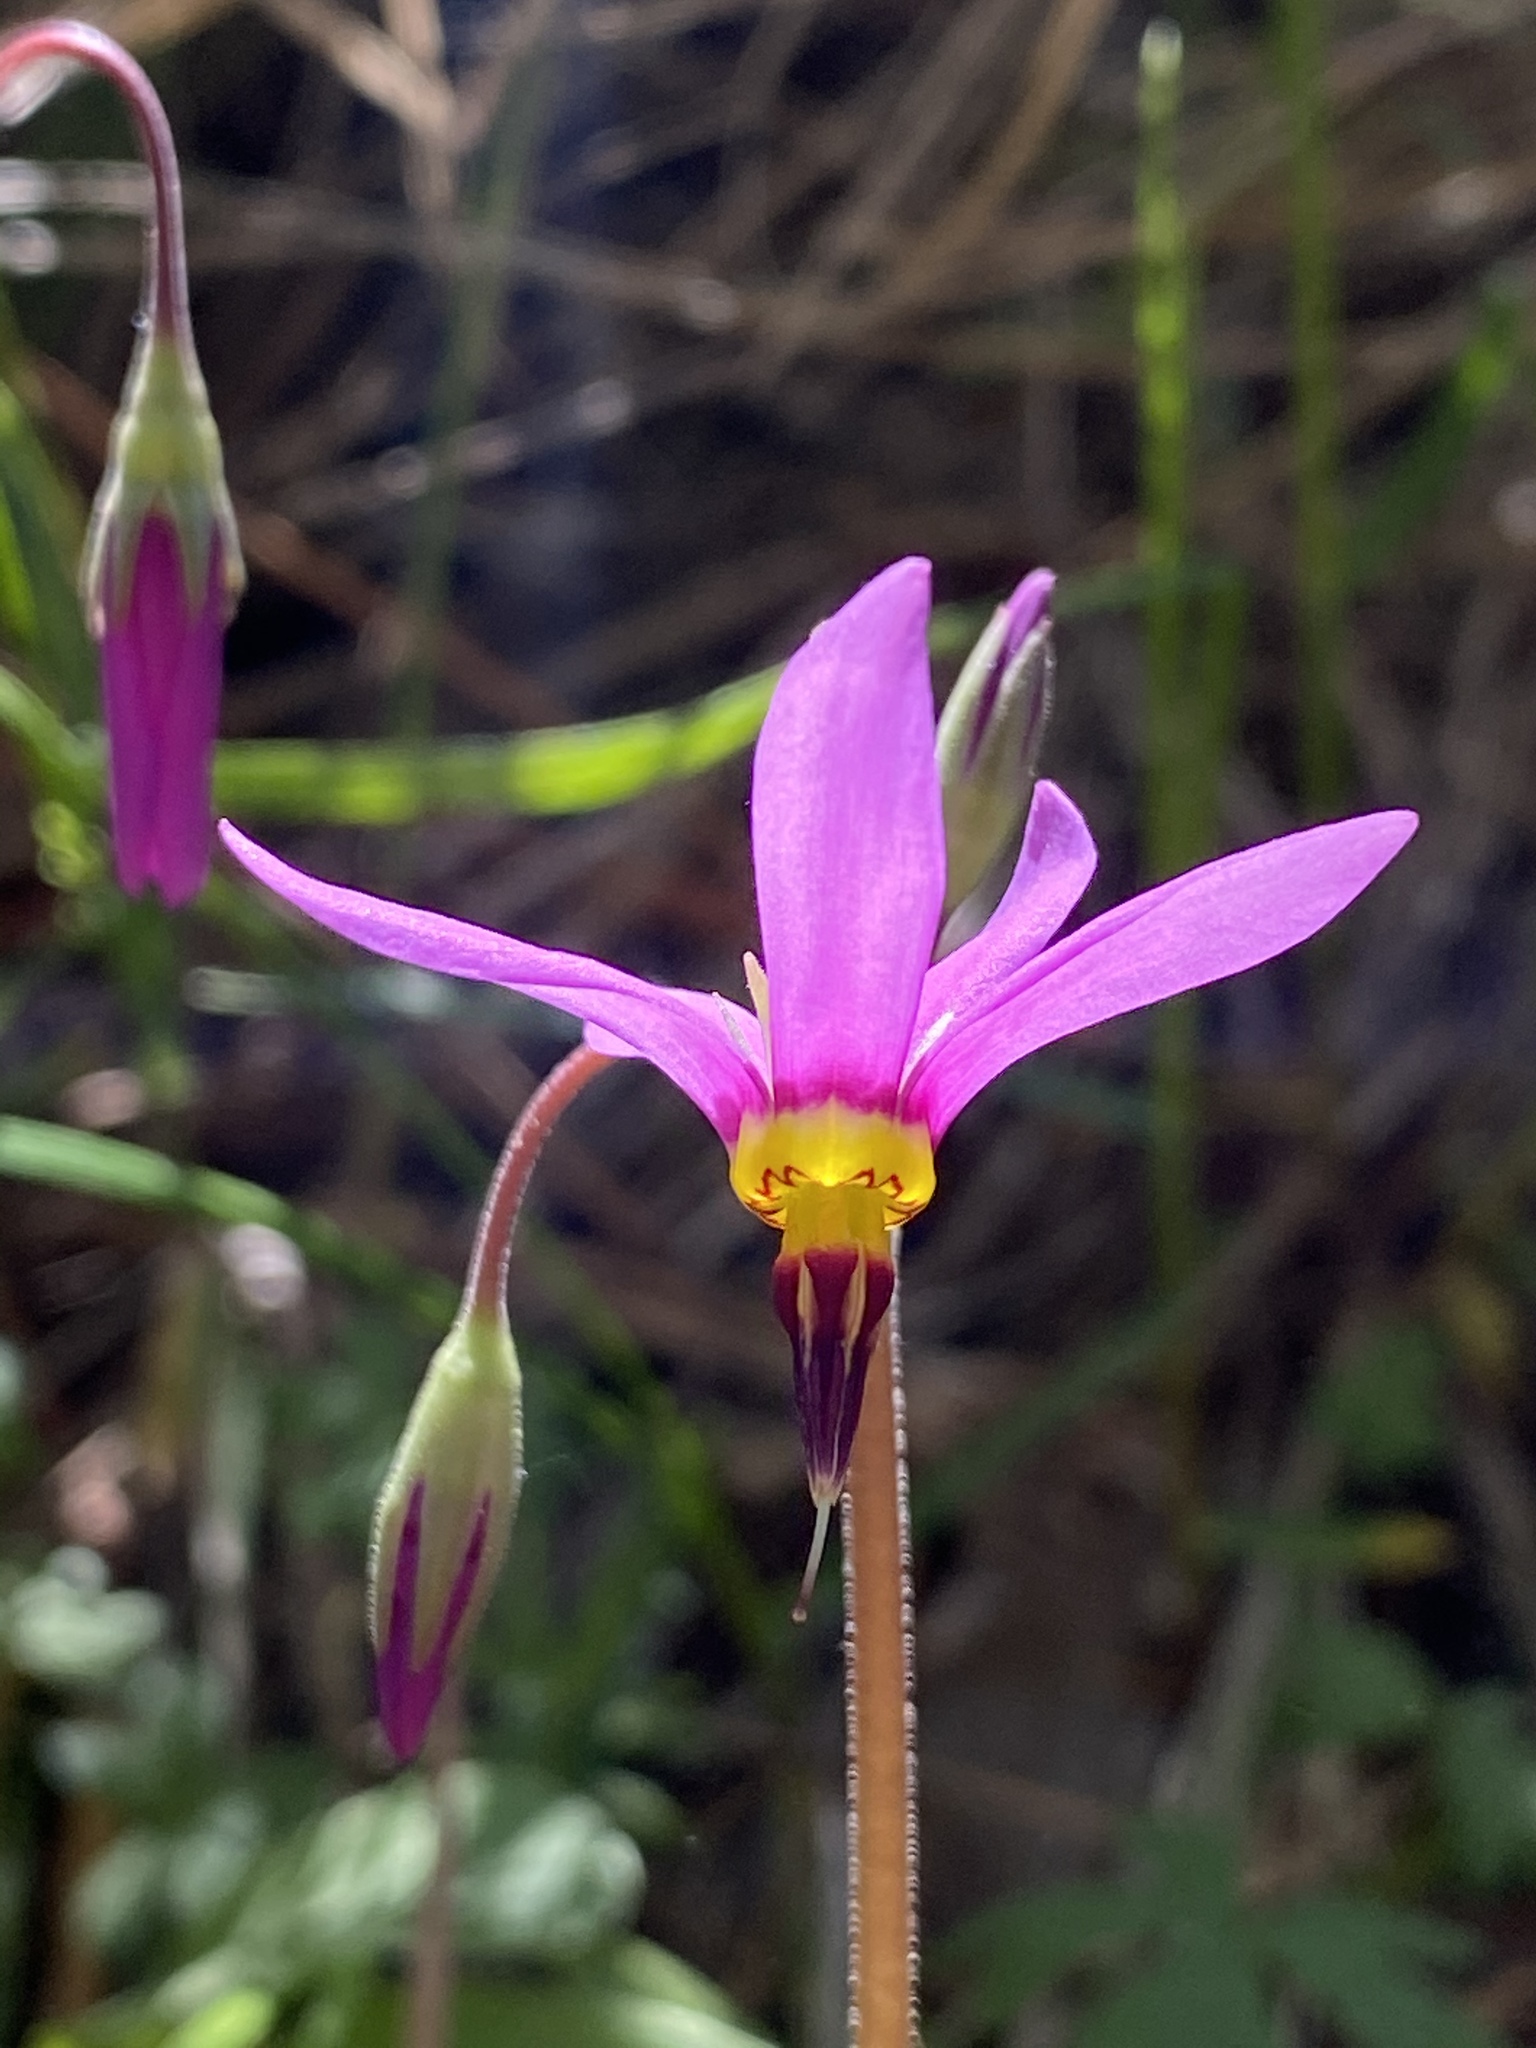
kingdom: Plantae
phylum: Tracheophyta
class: Magnoliopsida
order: Ericales
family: Primulaceae
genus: Dodecatheon
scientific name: Dodecatheon pulchellum
